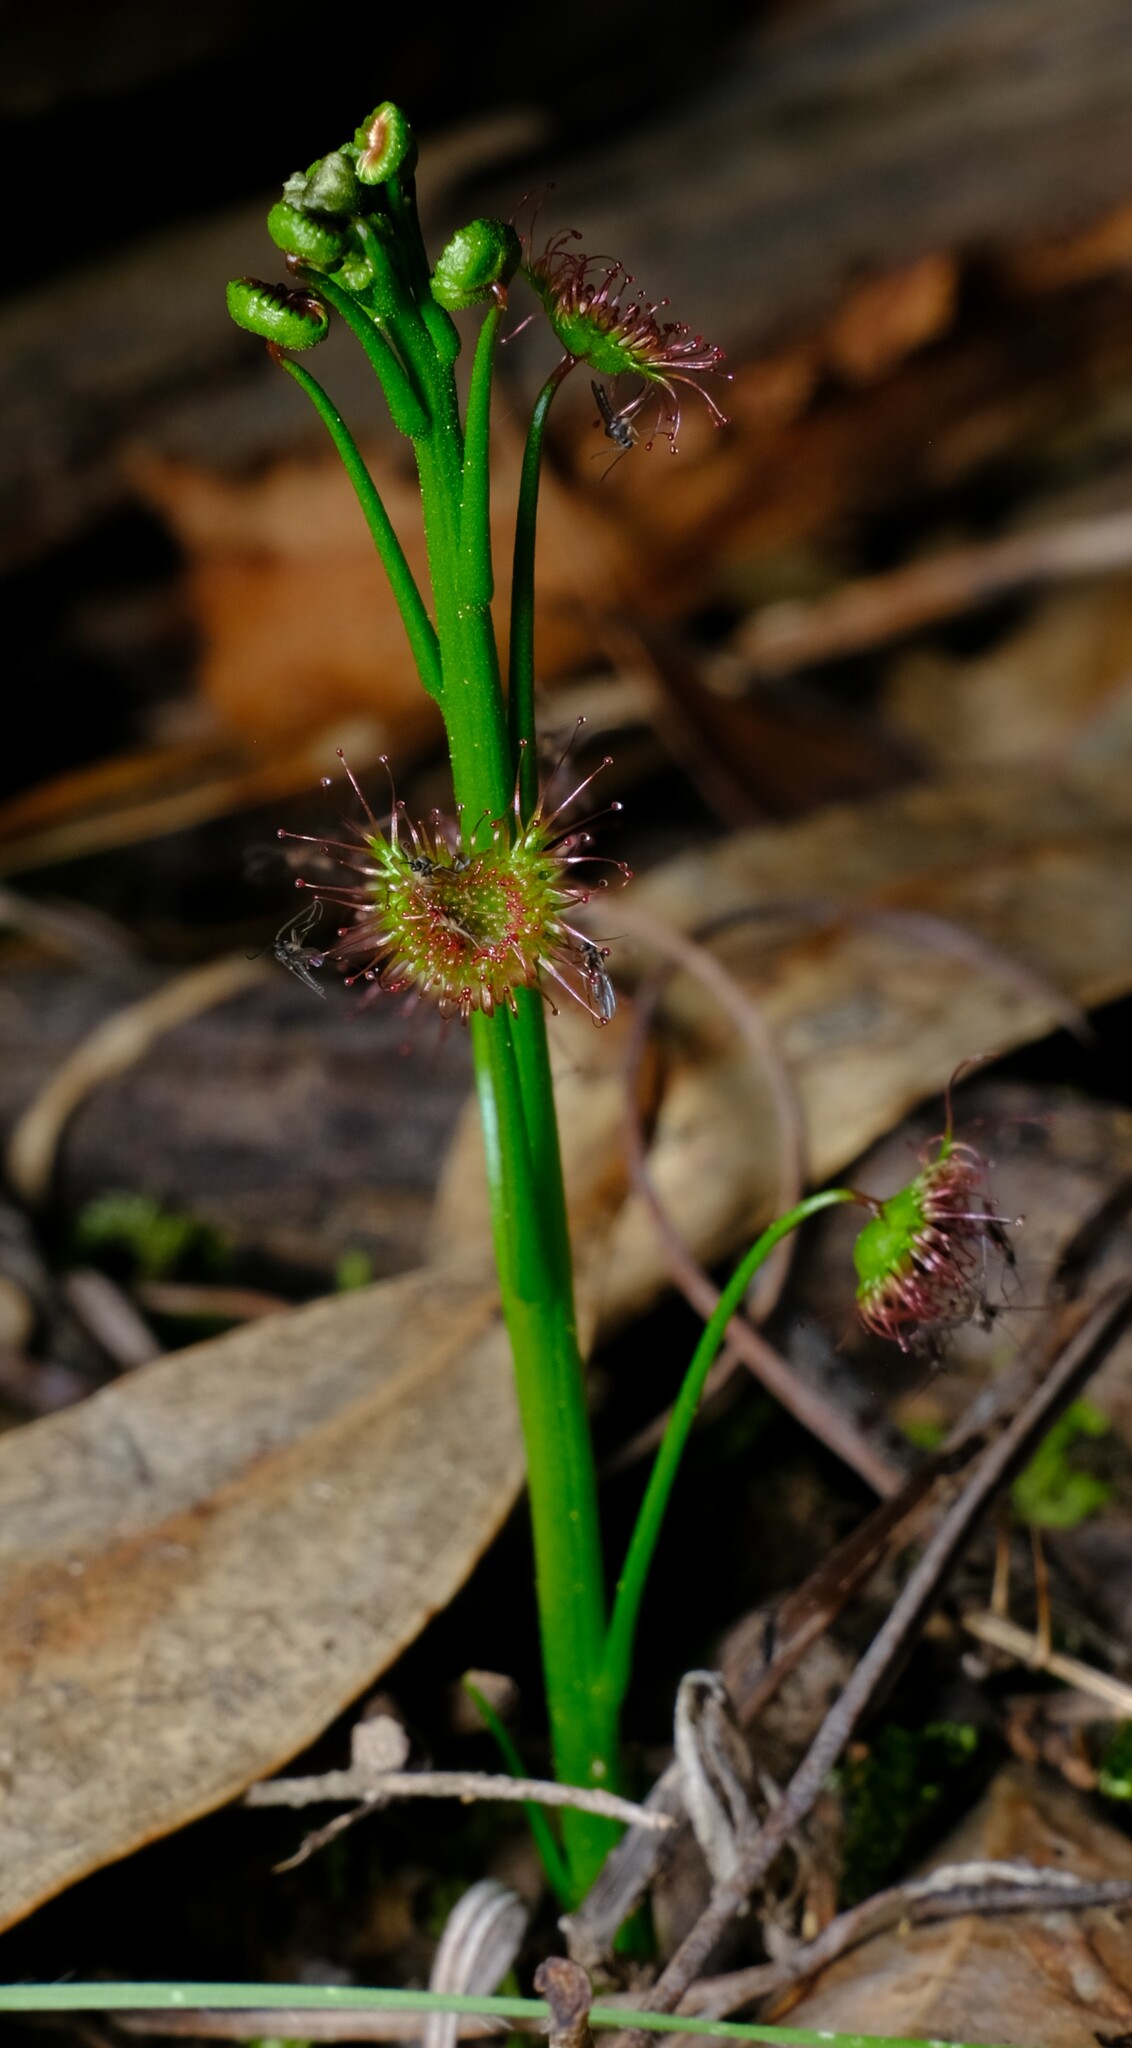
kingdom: Plantae
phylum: Tracheophyta
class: Magnoliopsida
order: Caryophyllales
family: Droseraceae
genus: Drosera
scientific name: Drosera peltata
